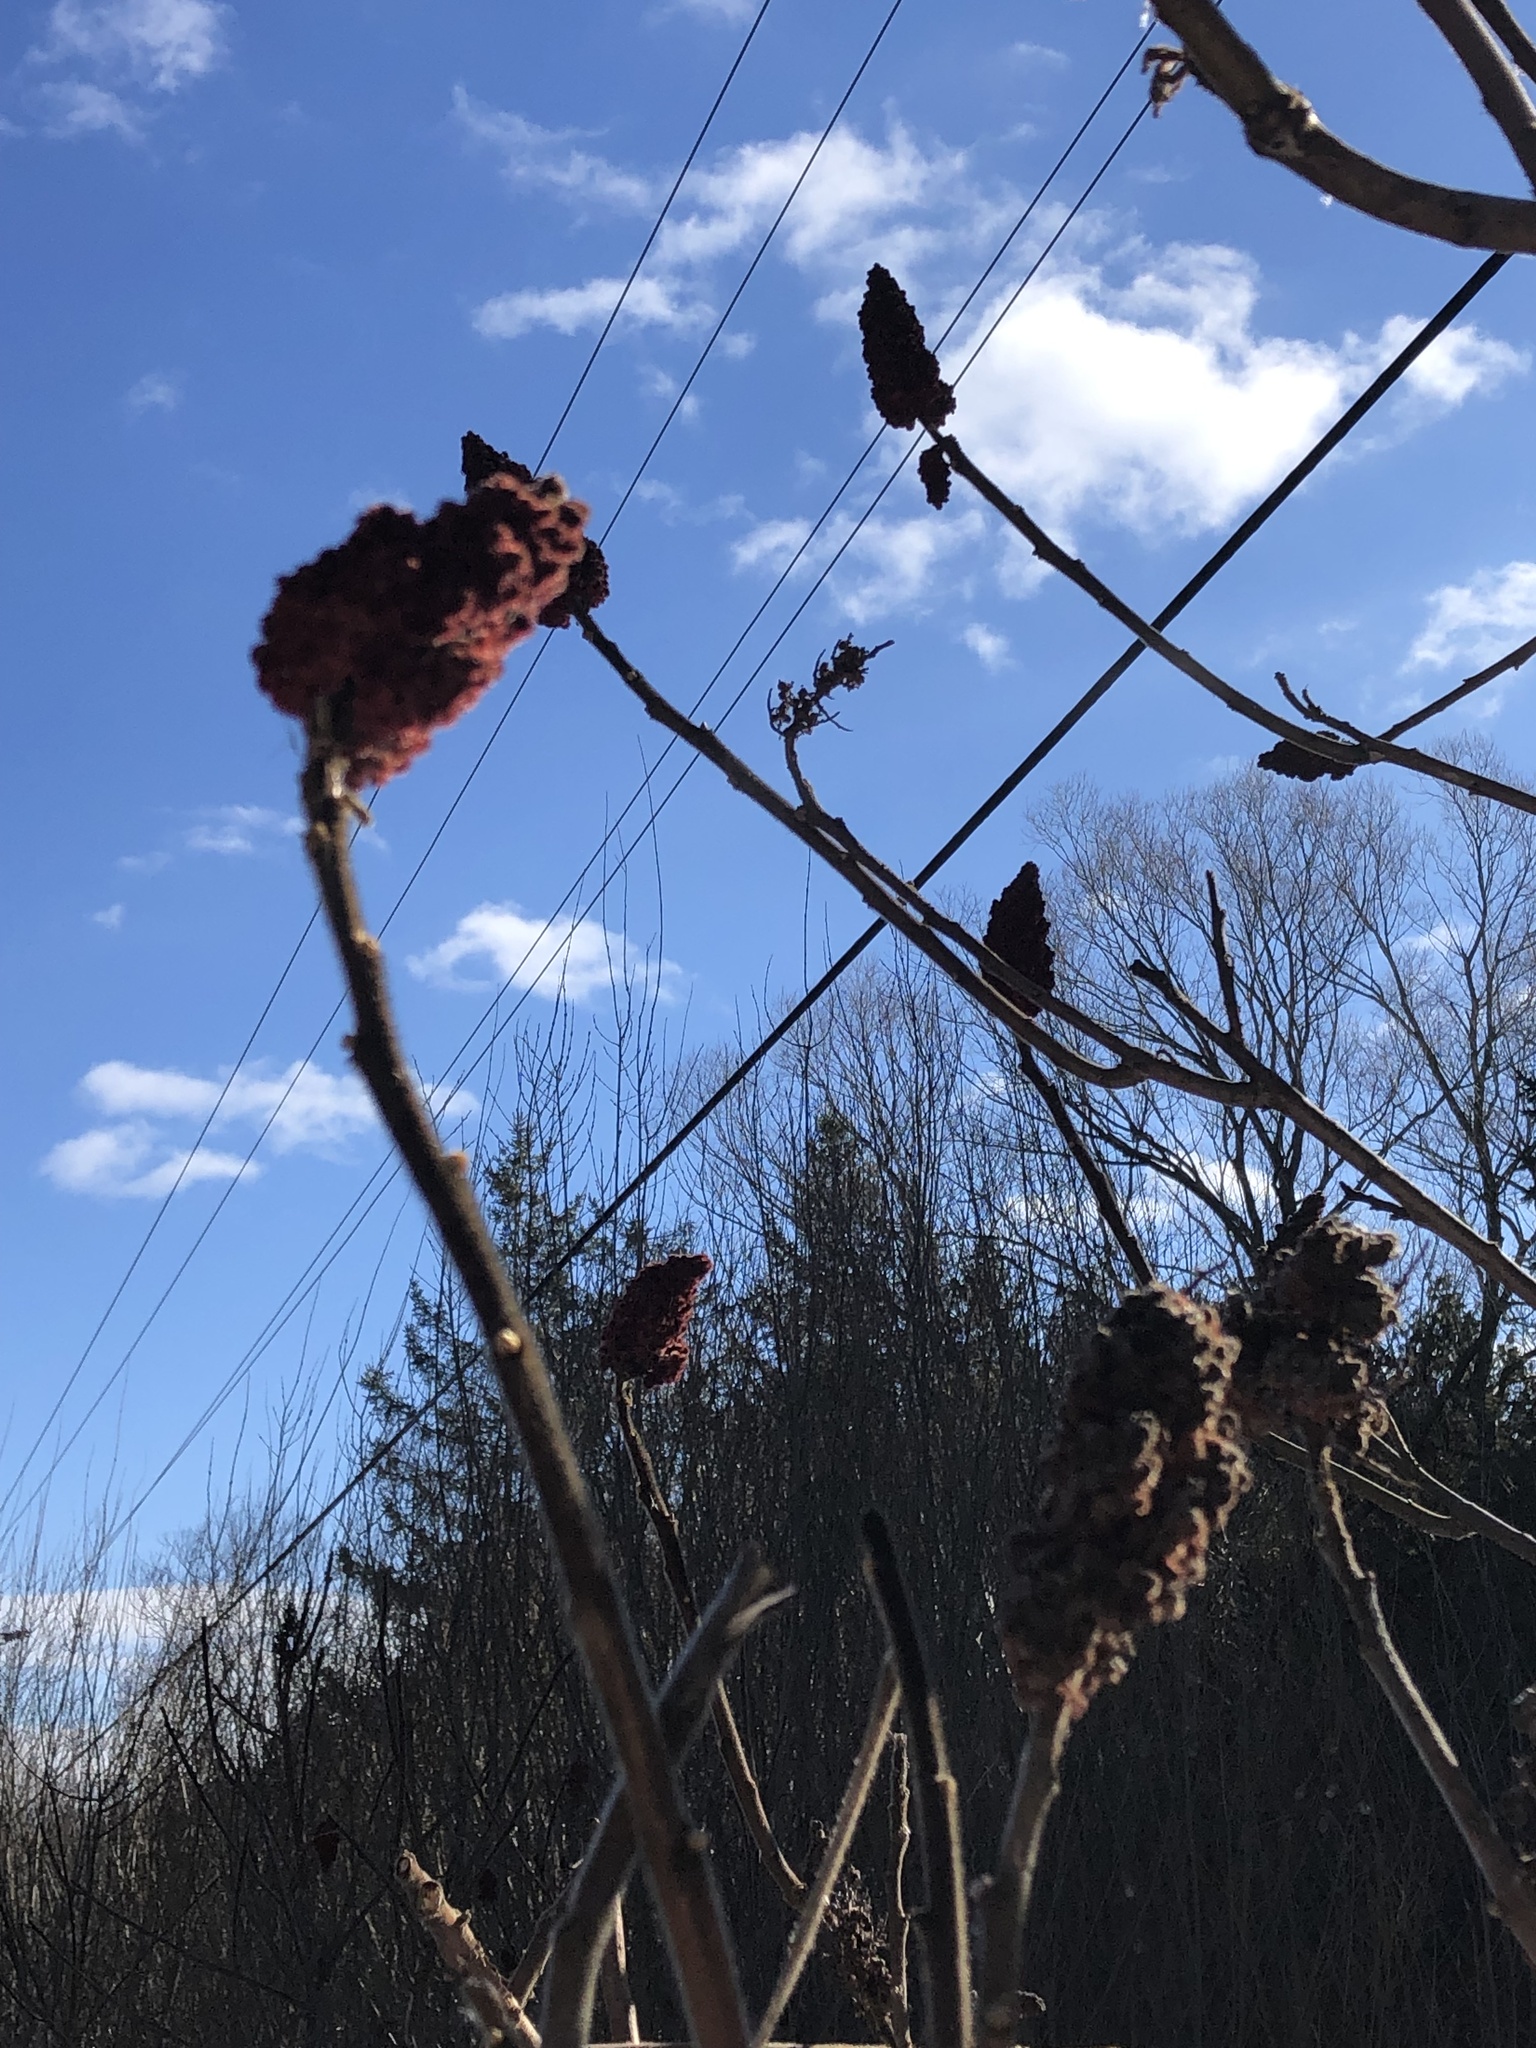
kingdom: Plantae
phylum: Tracheophyta
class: Magnoliopsida
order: Sapindales
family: Anacardiaceae
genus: Rhus
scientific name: Rhus typhina
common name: Staghorn sumac
